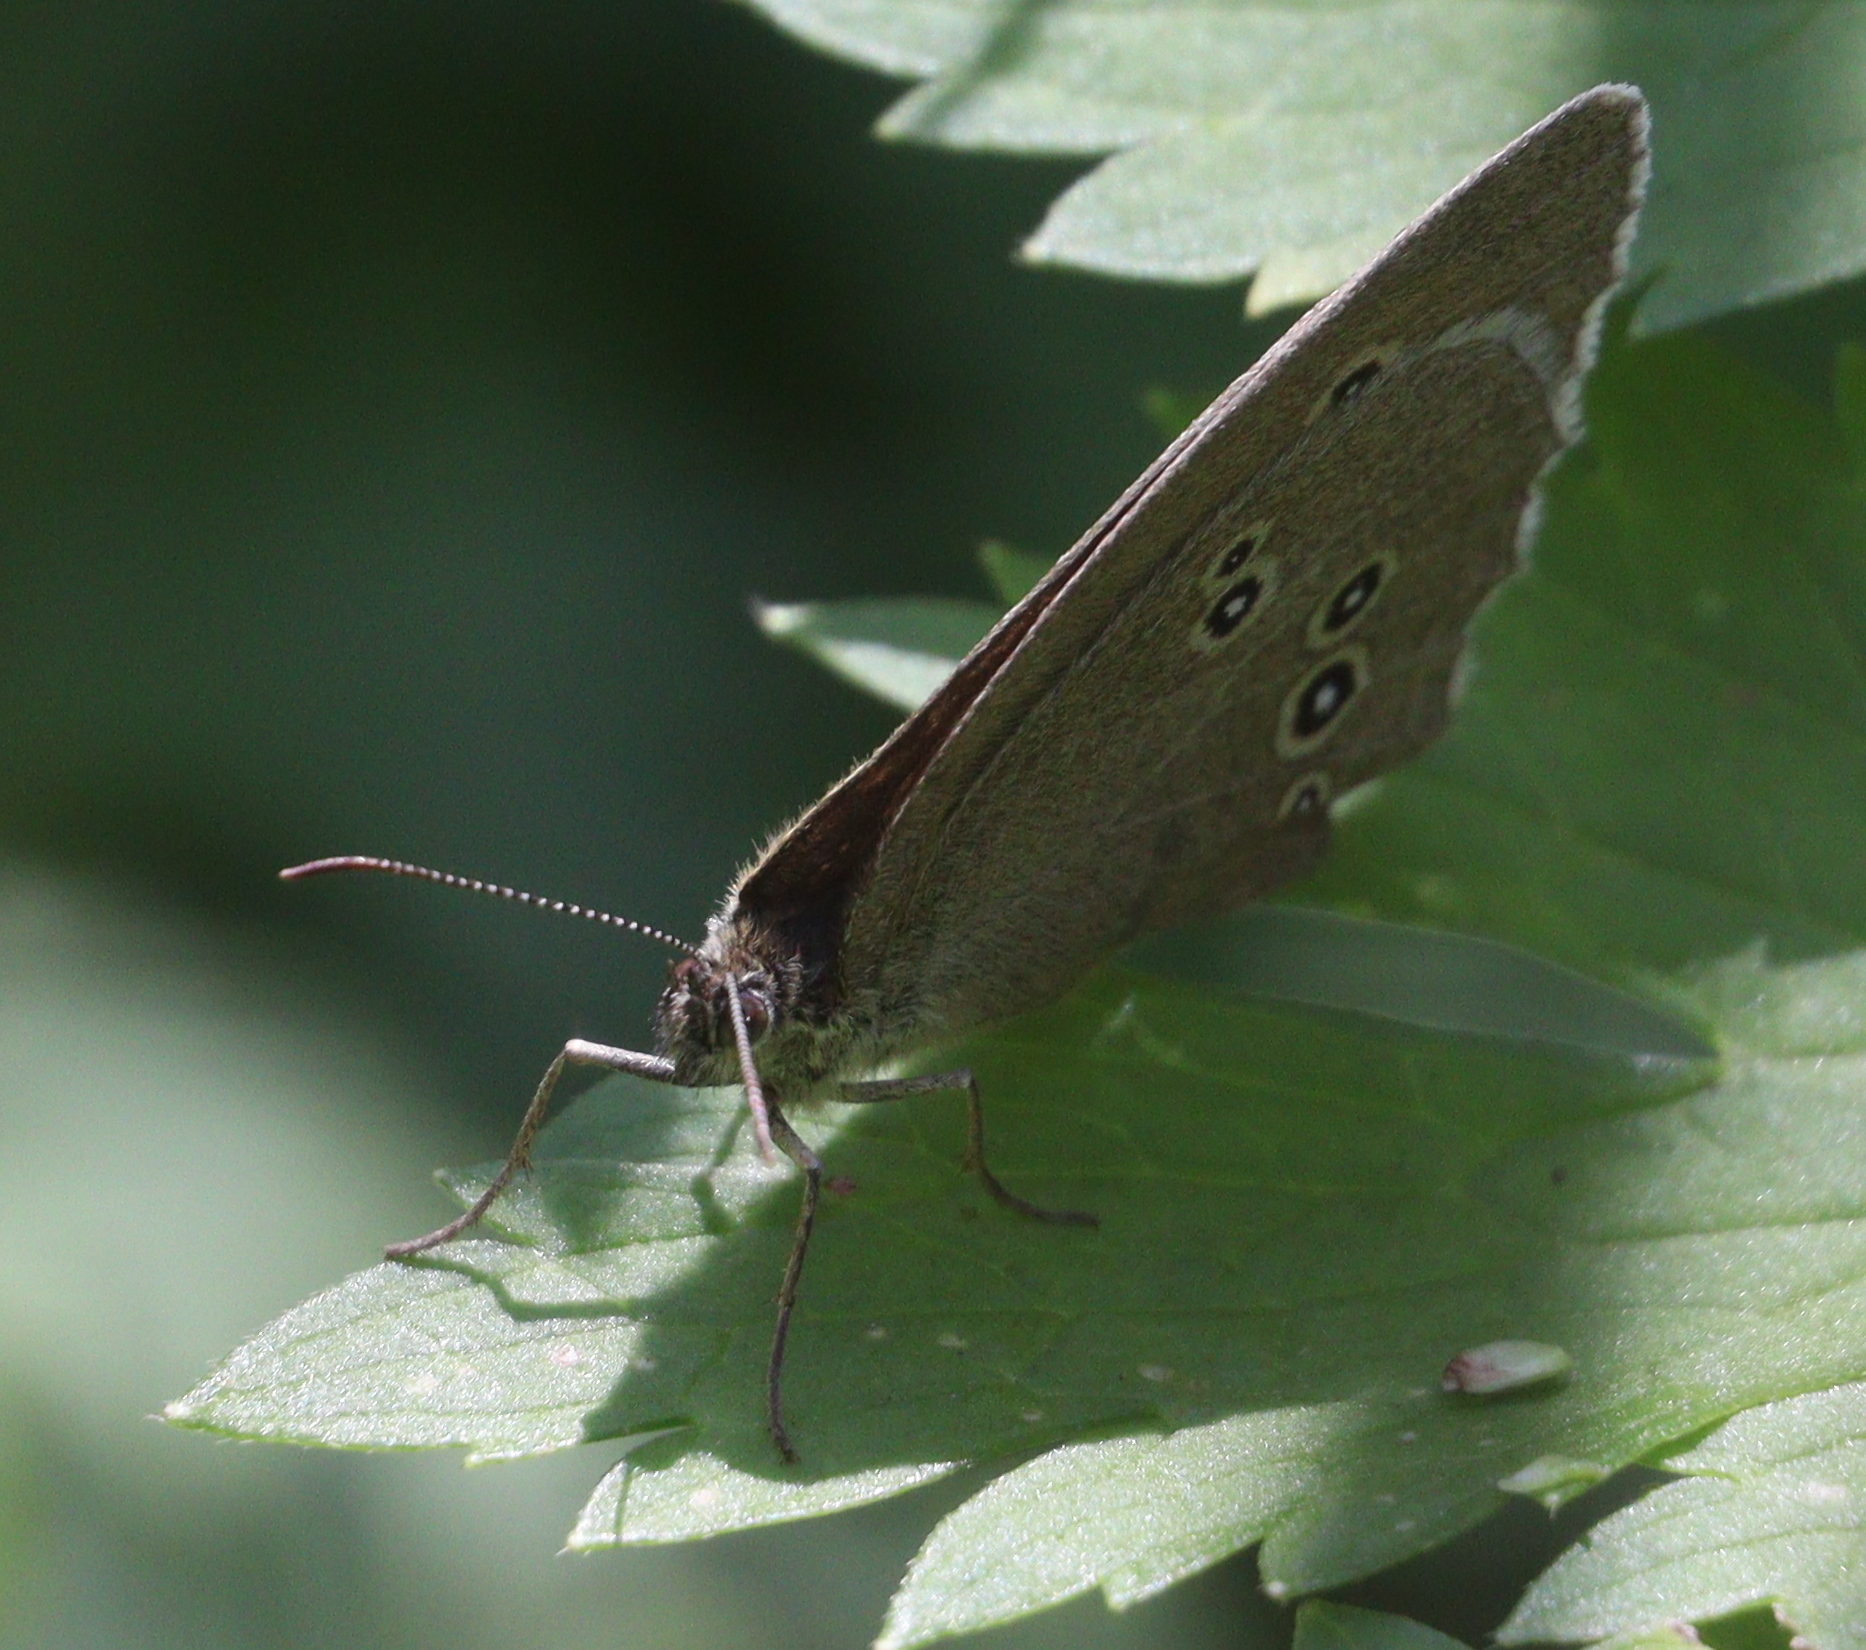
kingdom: Animalia
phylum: Arthropoda
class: Insecta
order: Lepidoptera
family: Nymphalidae
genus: Aphantopus
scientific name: Aphantopus hyperantus
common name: Ringlet
